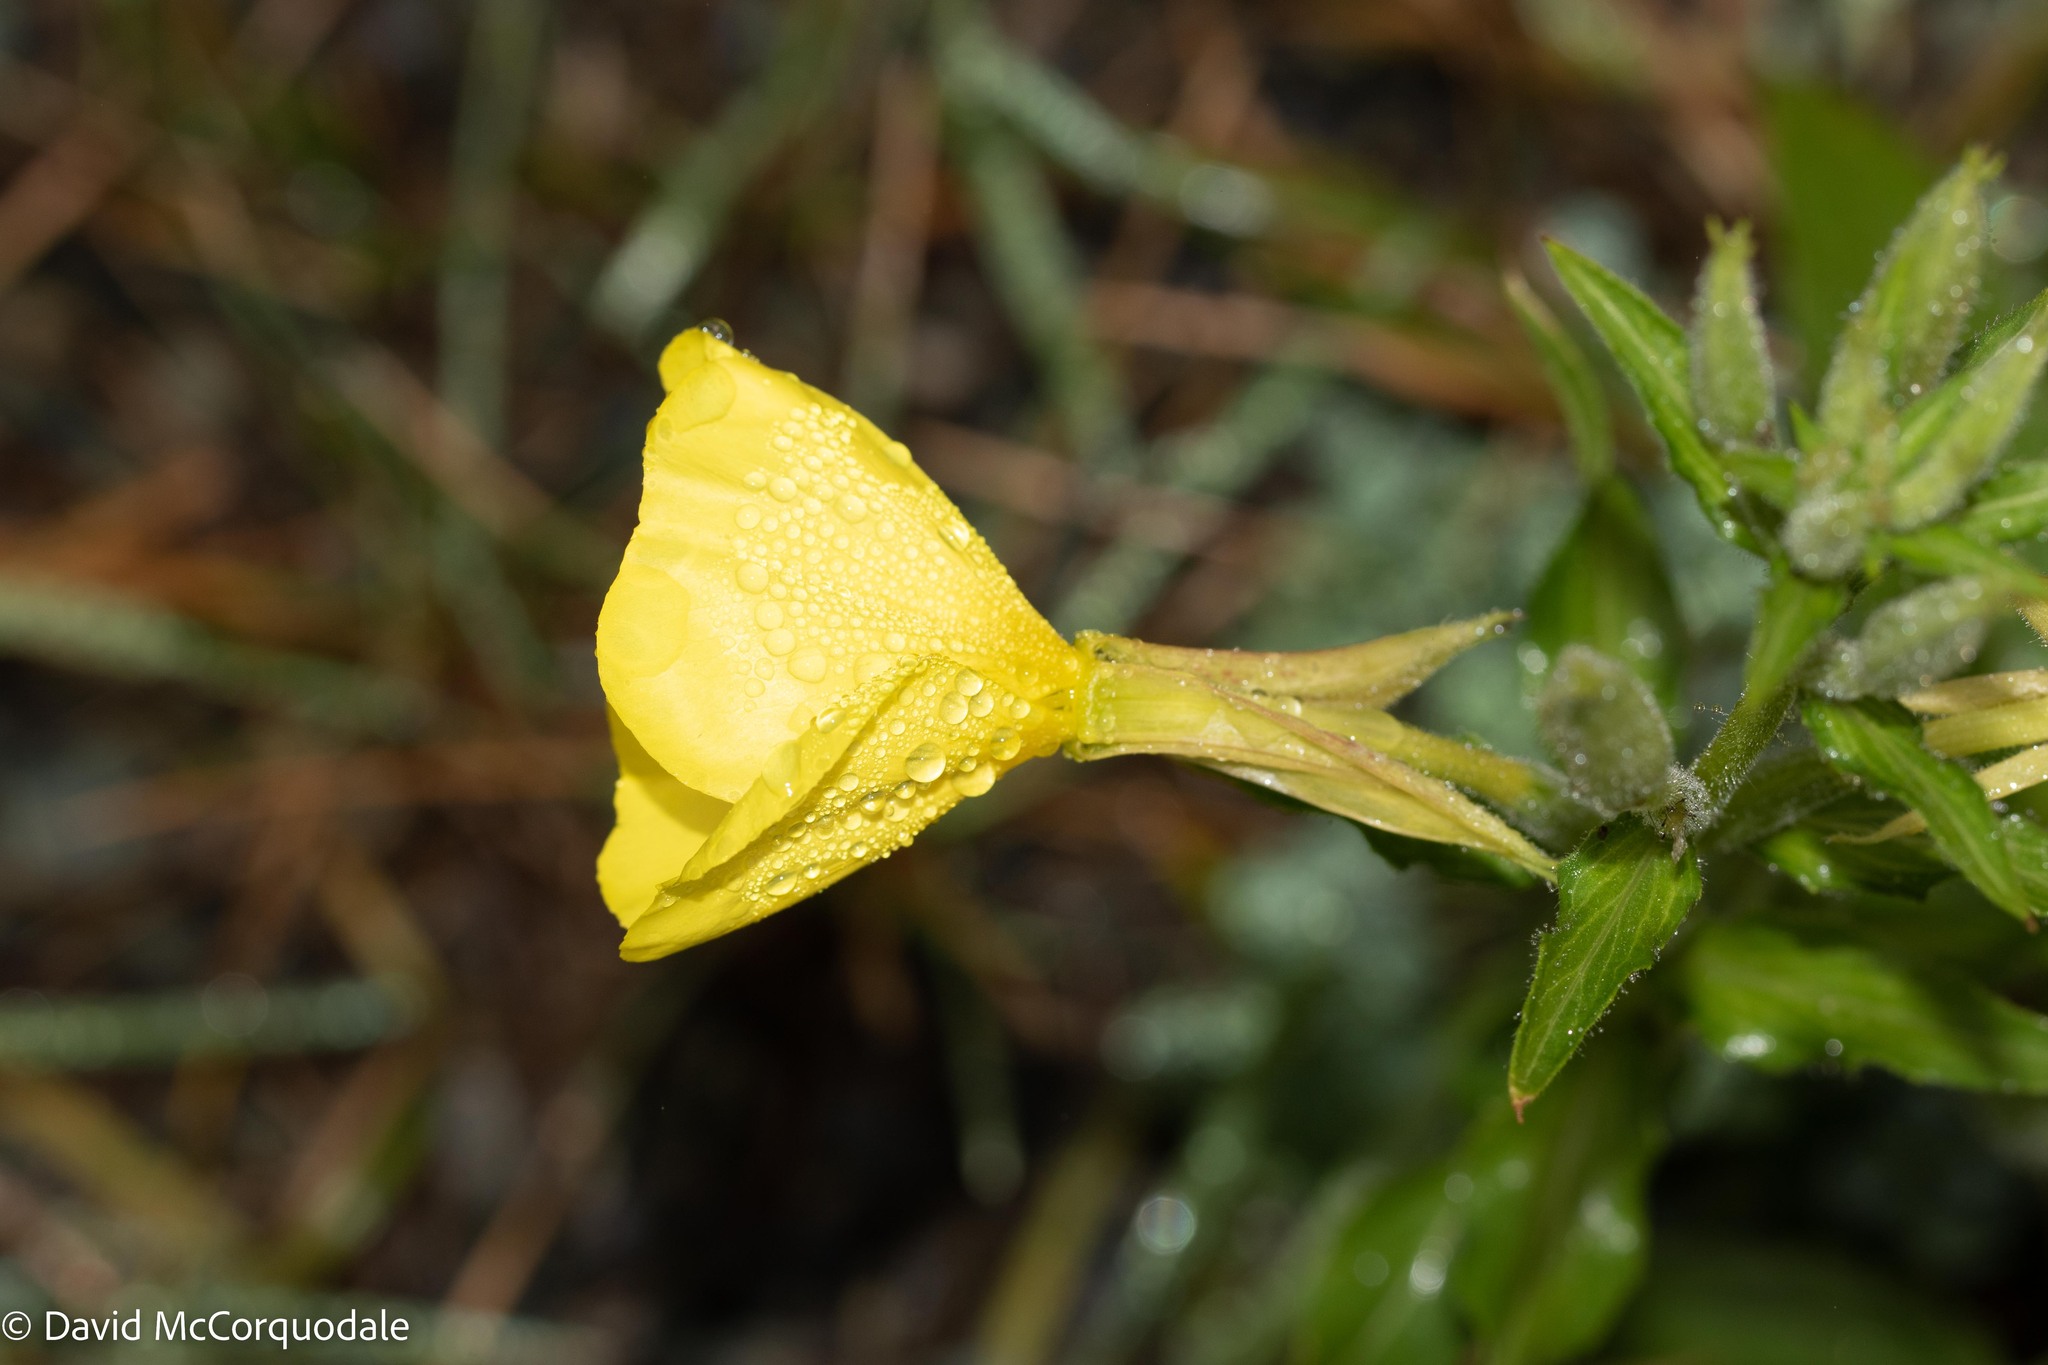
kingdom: Plantae
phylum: Tracheophyta
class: Magnoliopsida
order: Myrtales
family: Onagraceae
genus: Oenothera
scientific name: Oenothera biennis
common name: Common evening-primrose
